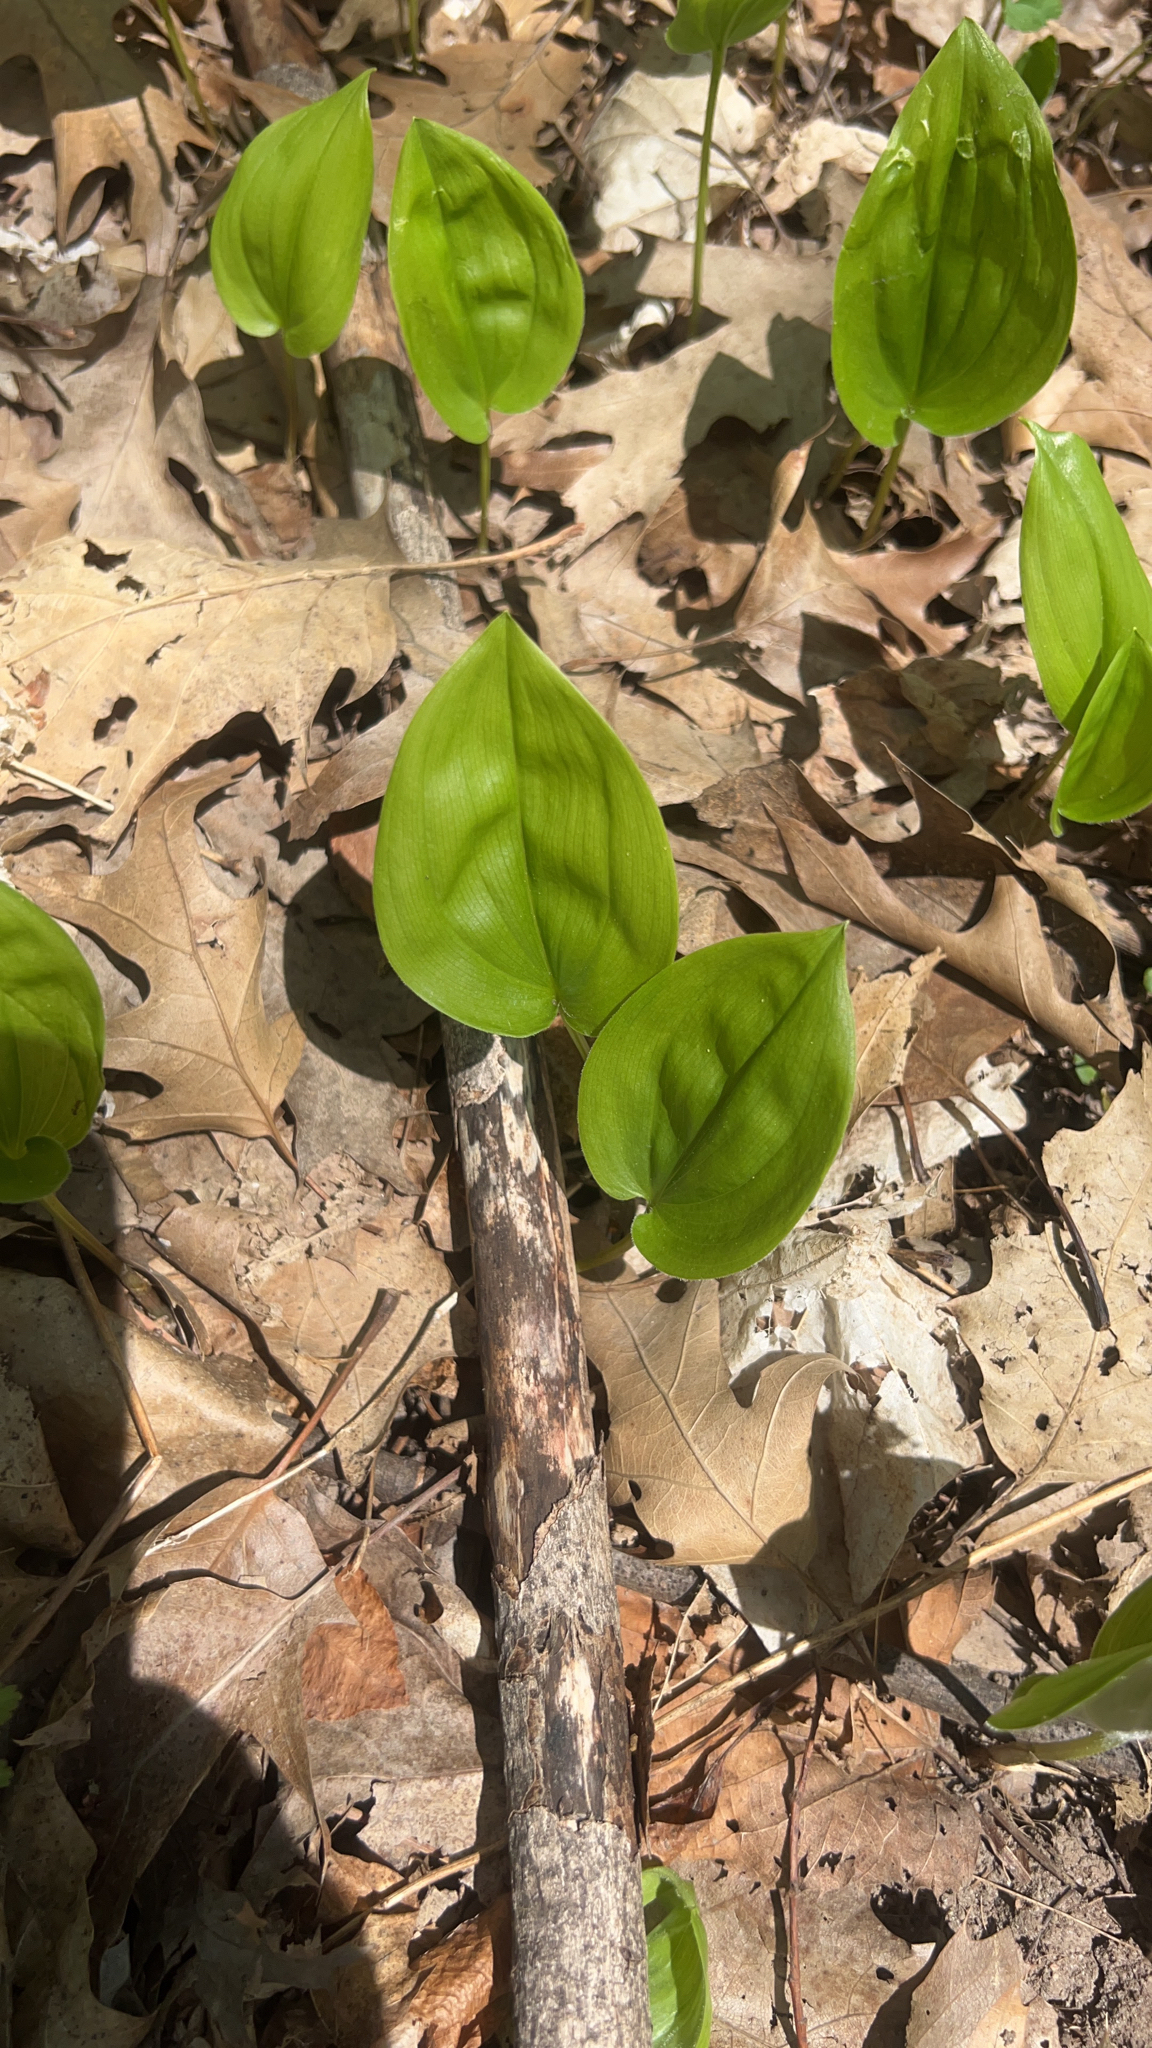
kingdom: Plantae
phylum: Tracheophyta
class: Liliopsida
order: Asparagales
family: Asparagaceae
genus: Maianthemum
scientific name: Maianthemum canadense
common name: False lily-of-the-valley
